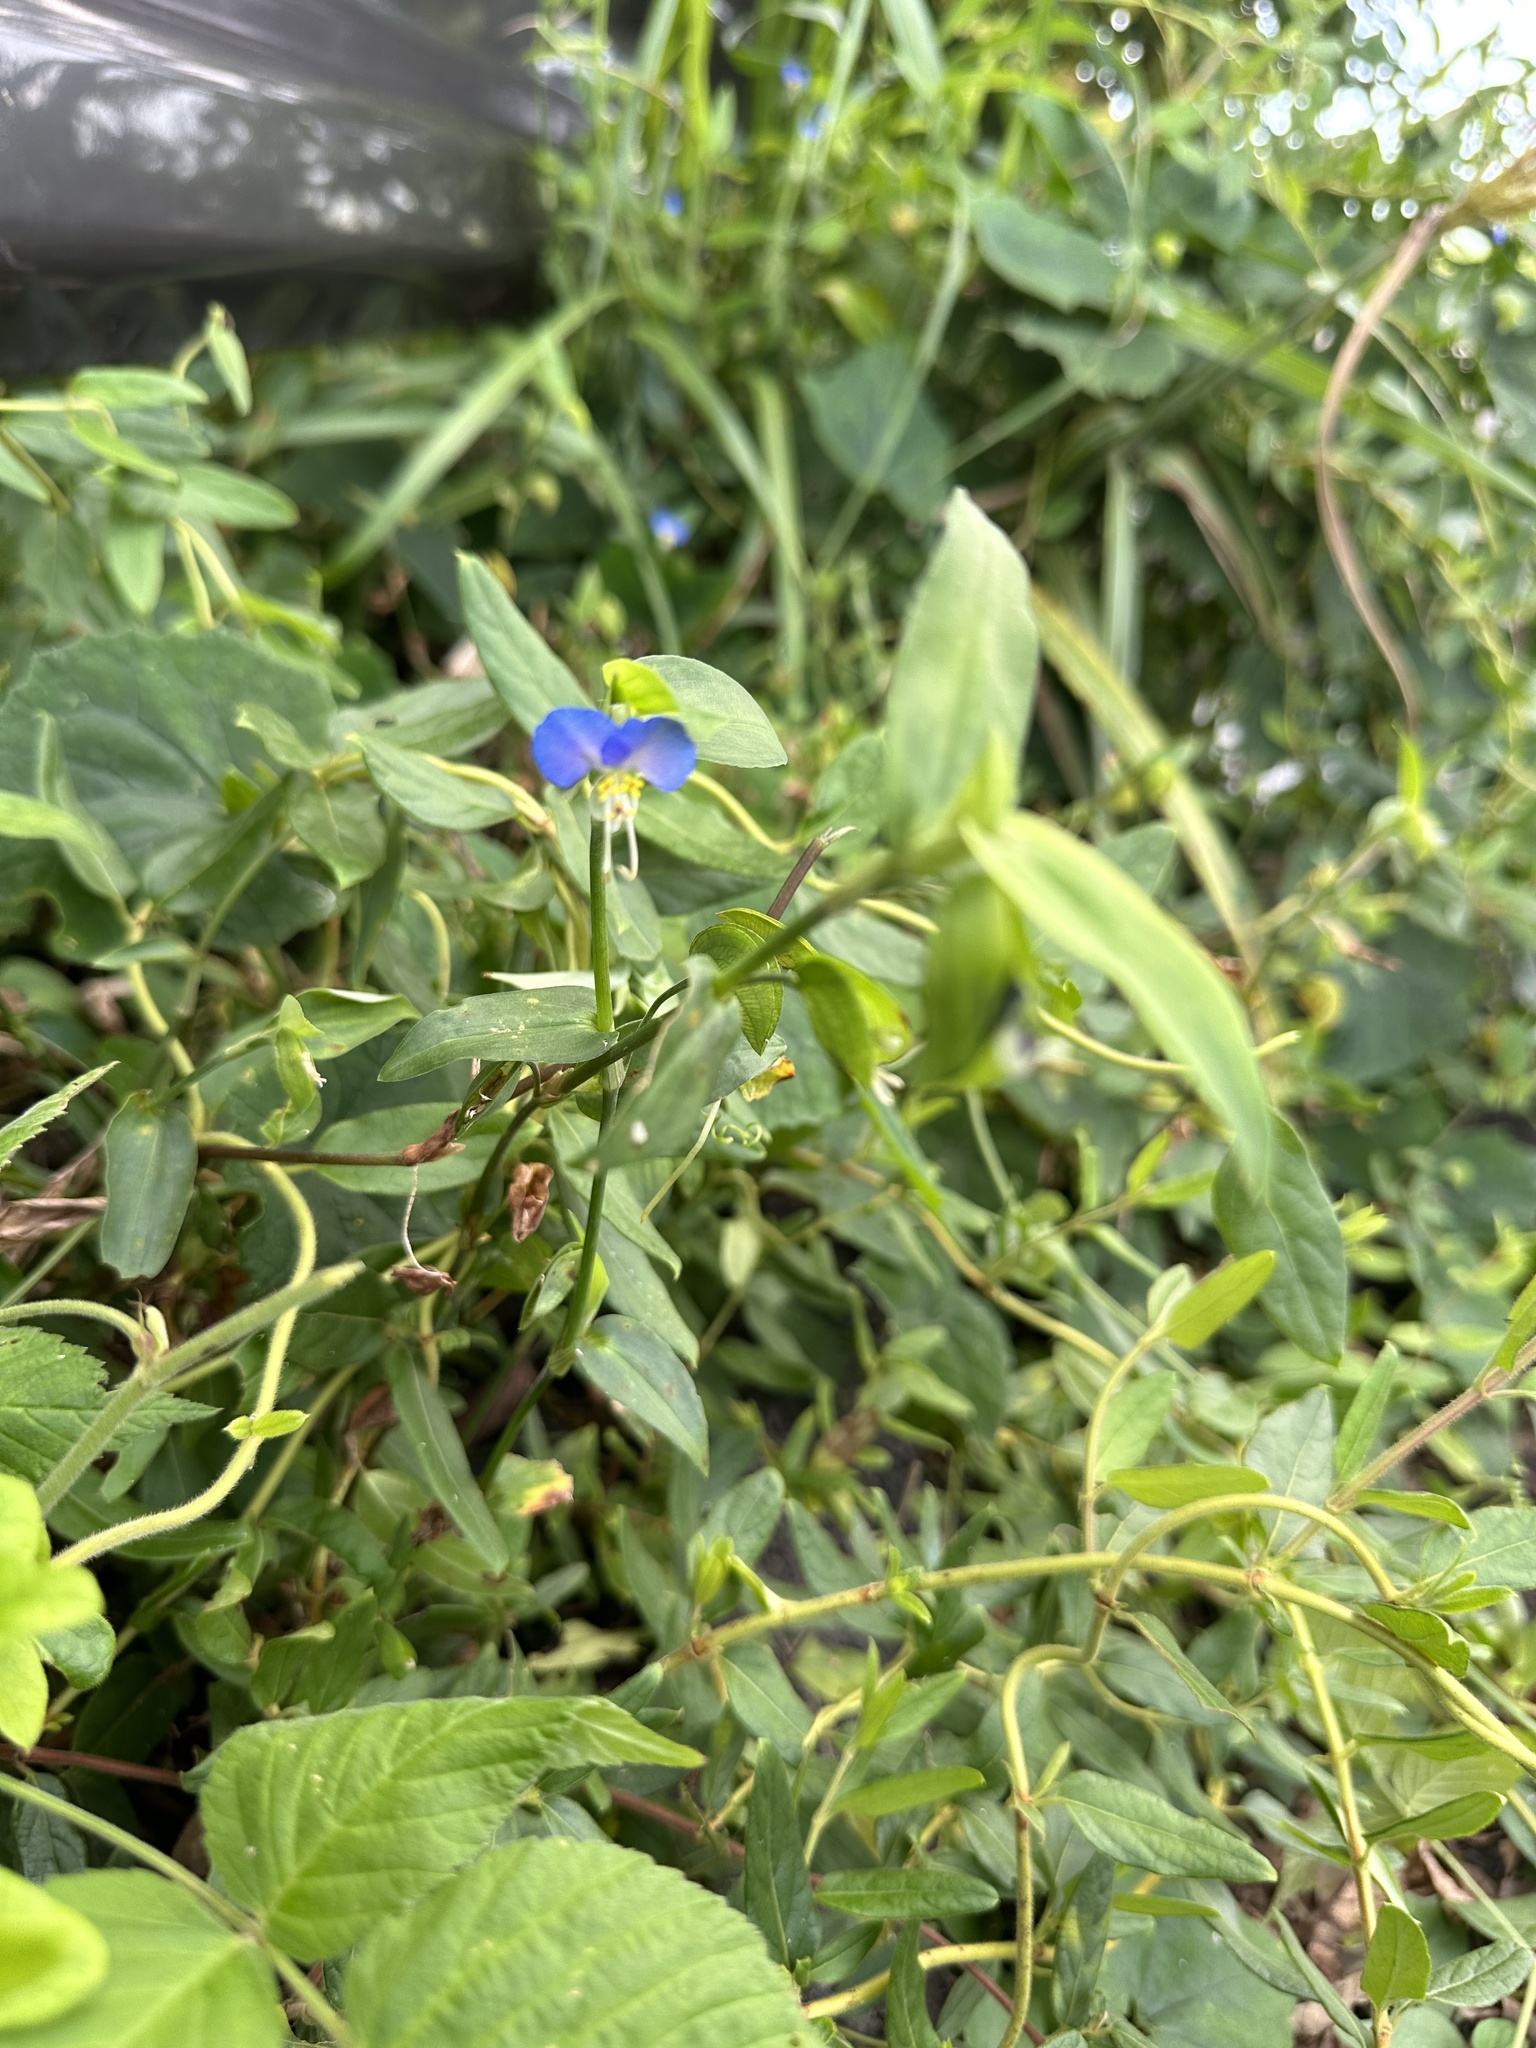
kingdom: Plantae
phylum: Tracheophyta
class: Liliopsida
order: Commelinales
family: Commelinaceae
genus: Commelina
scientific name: Commelina communis
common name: Asiatic dayflower
